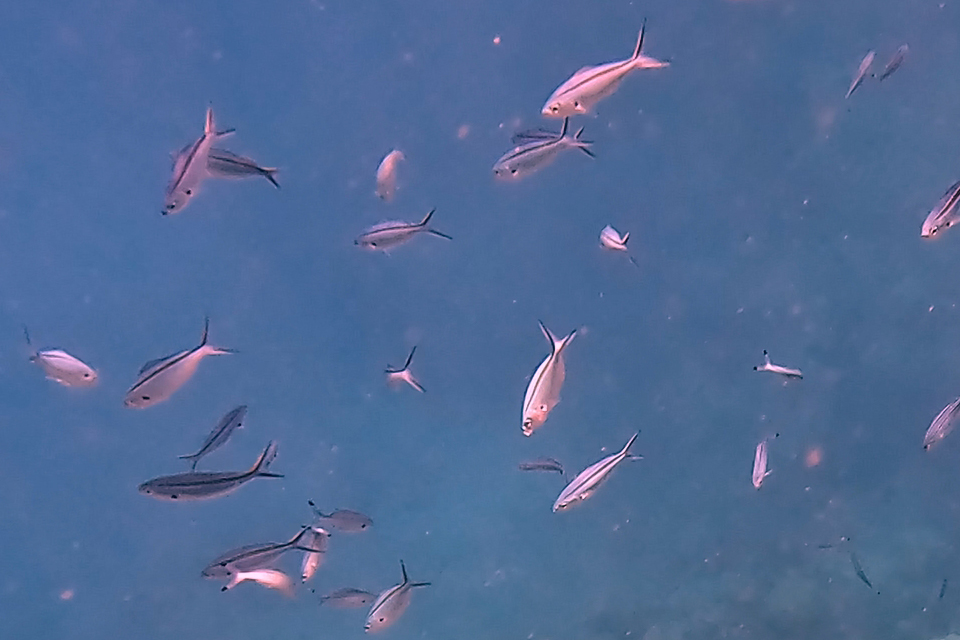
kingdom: Animalia
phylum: Chordata
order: Perciformes
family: Caesionidae
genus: Caesio
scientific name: Caesio caerulaurea
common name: Blue and gold fusilier
